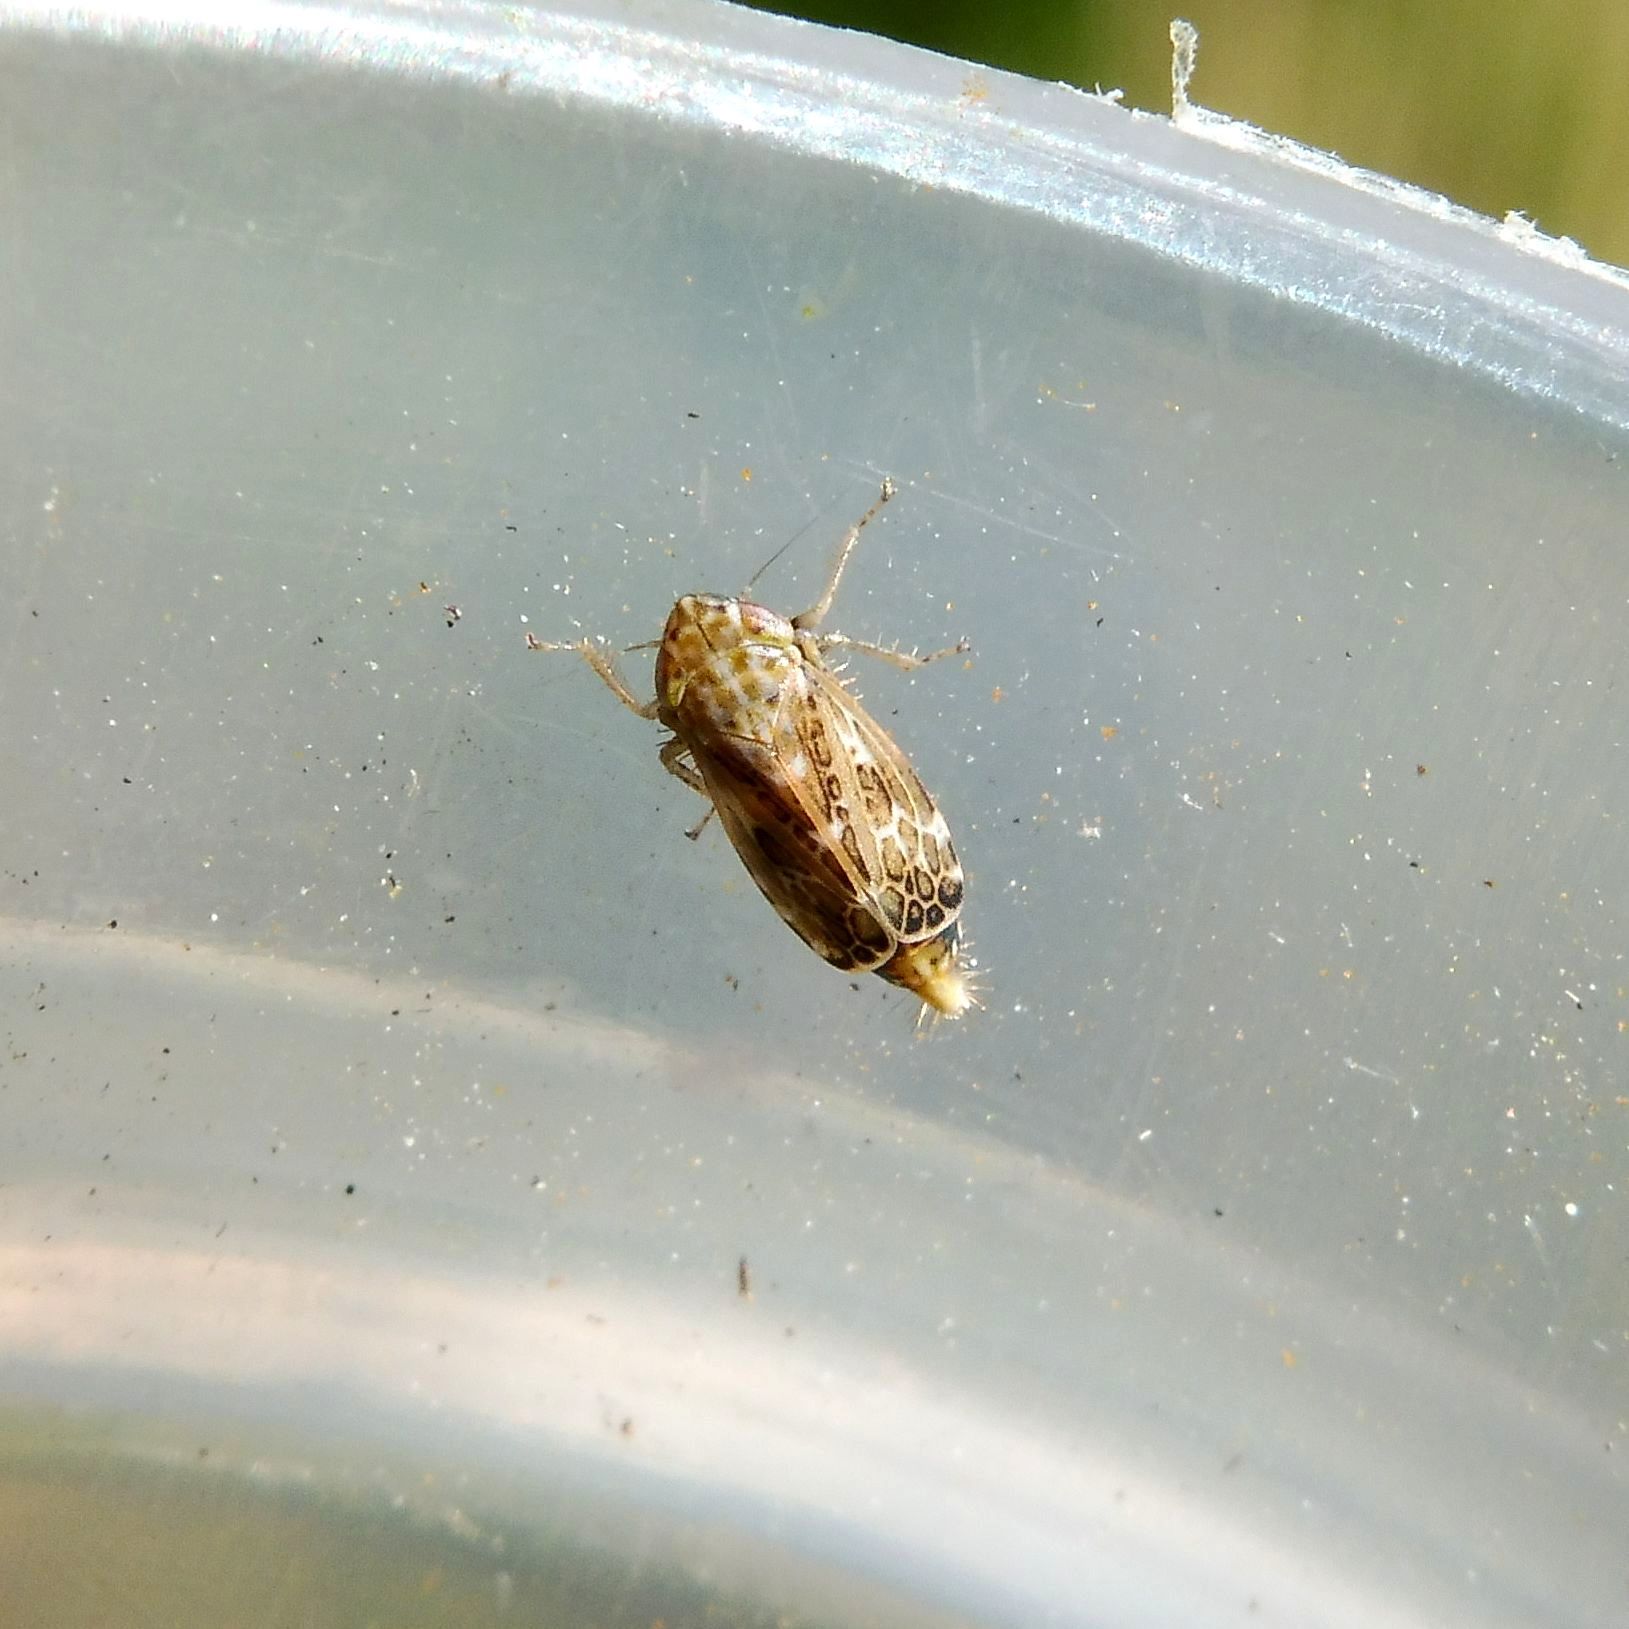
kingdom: Animalia
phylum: Arthropoda
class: Insecta
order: Hemiptera
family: Cicadellidae
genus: Errastunus
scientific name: Errastunus ocellaris
